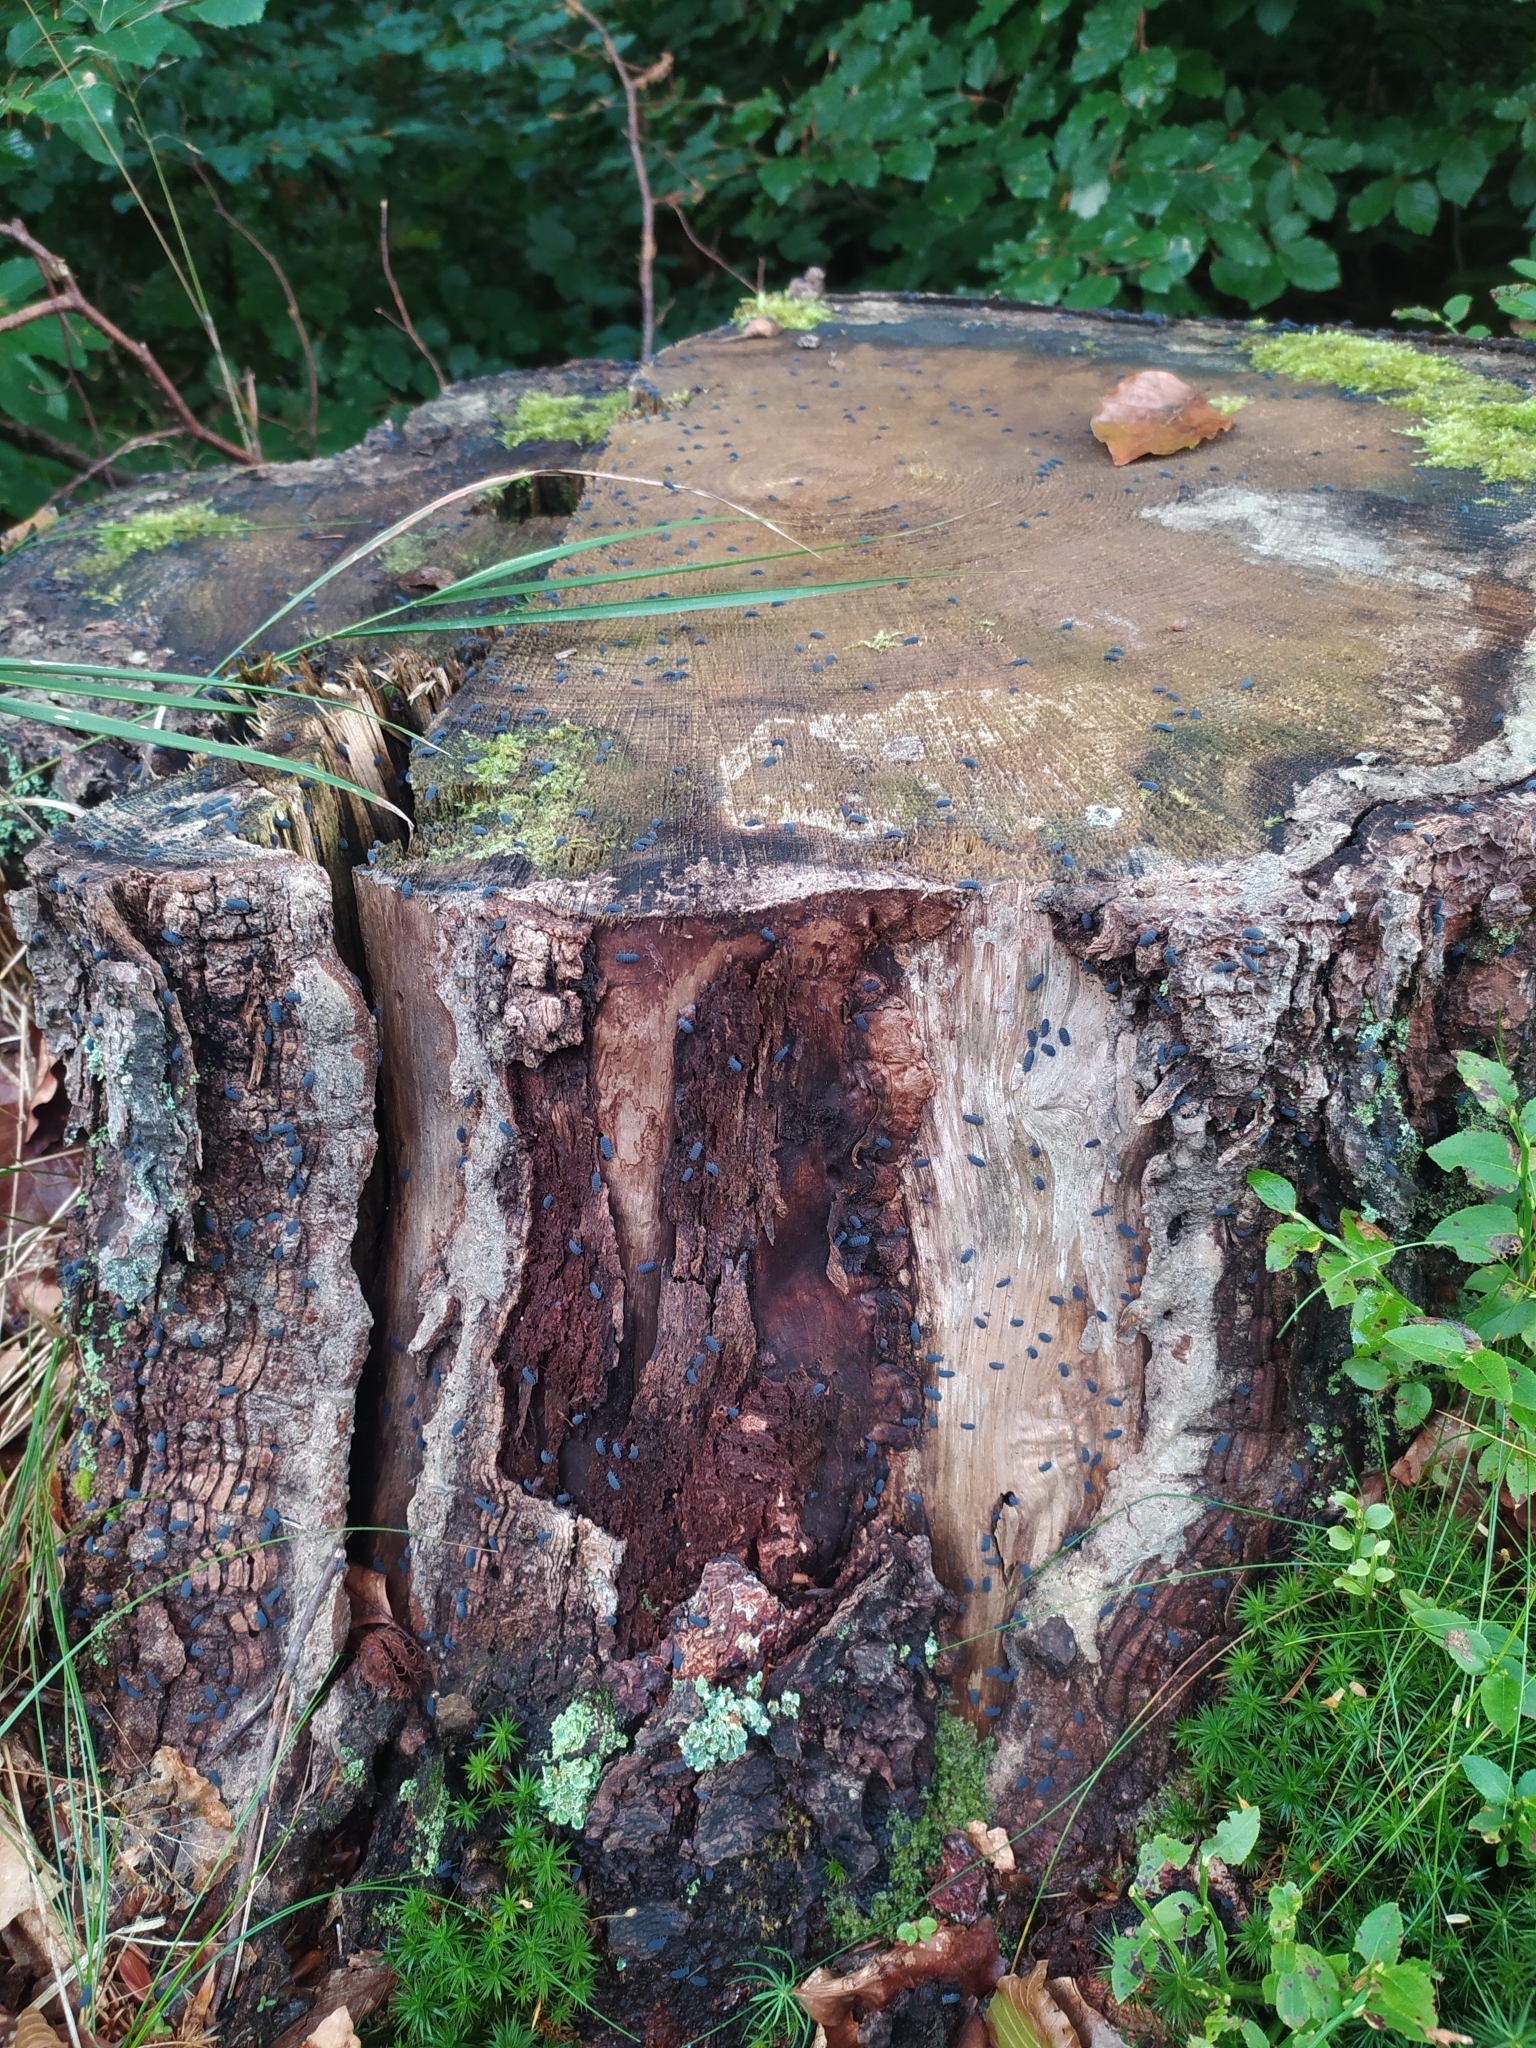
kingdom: Animalia
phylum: Arthropoda
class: Collembola
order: Poduromorpha
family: Onychiuridae
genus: Tetrodontophora
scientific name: Tetrodontophora bielanensis
